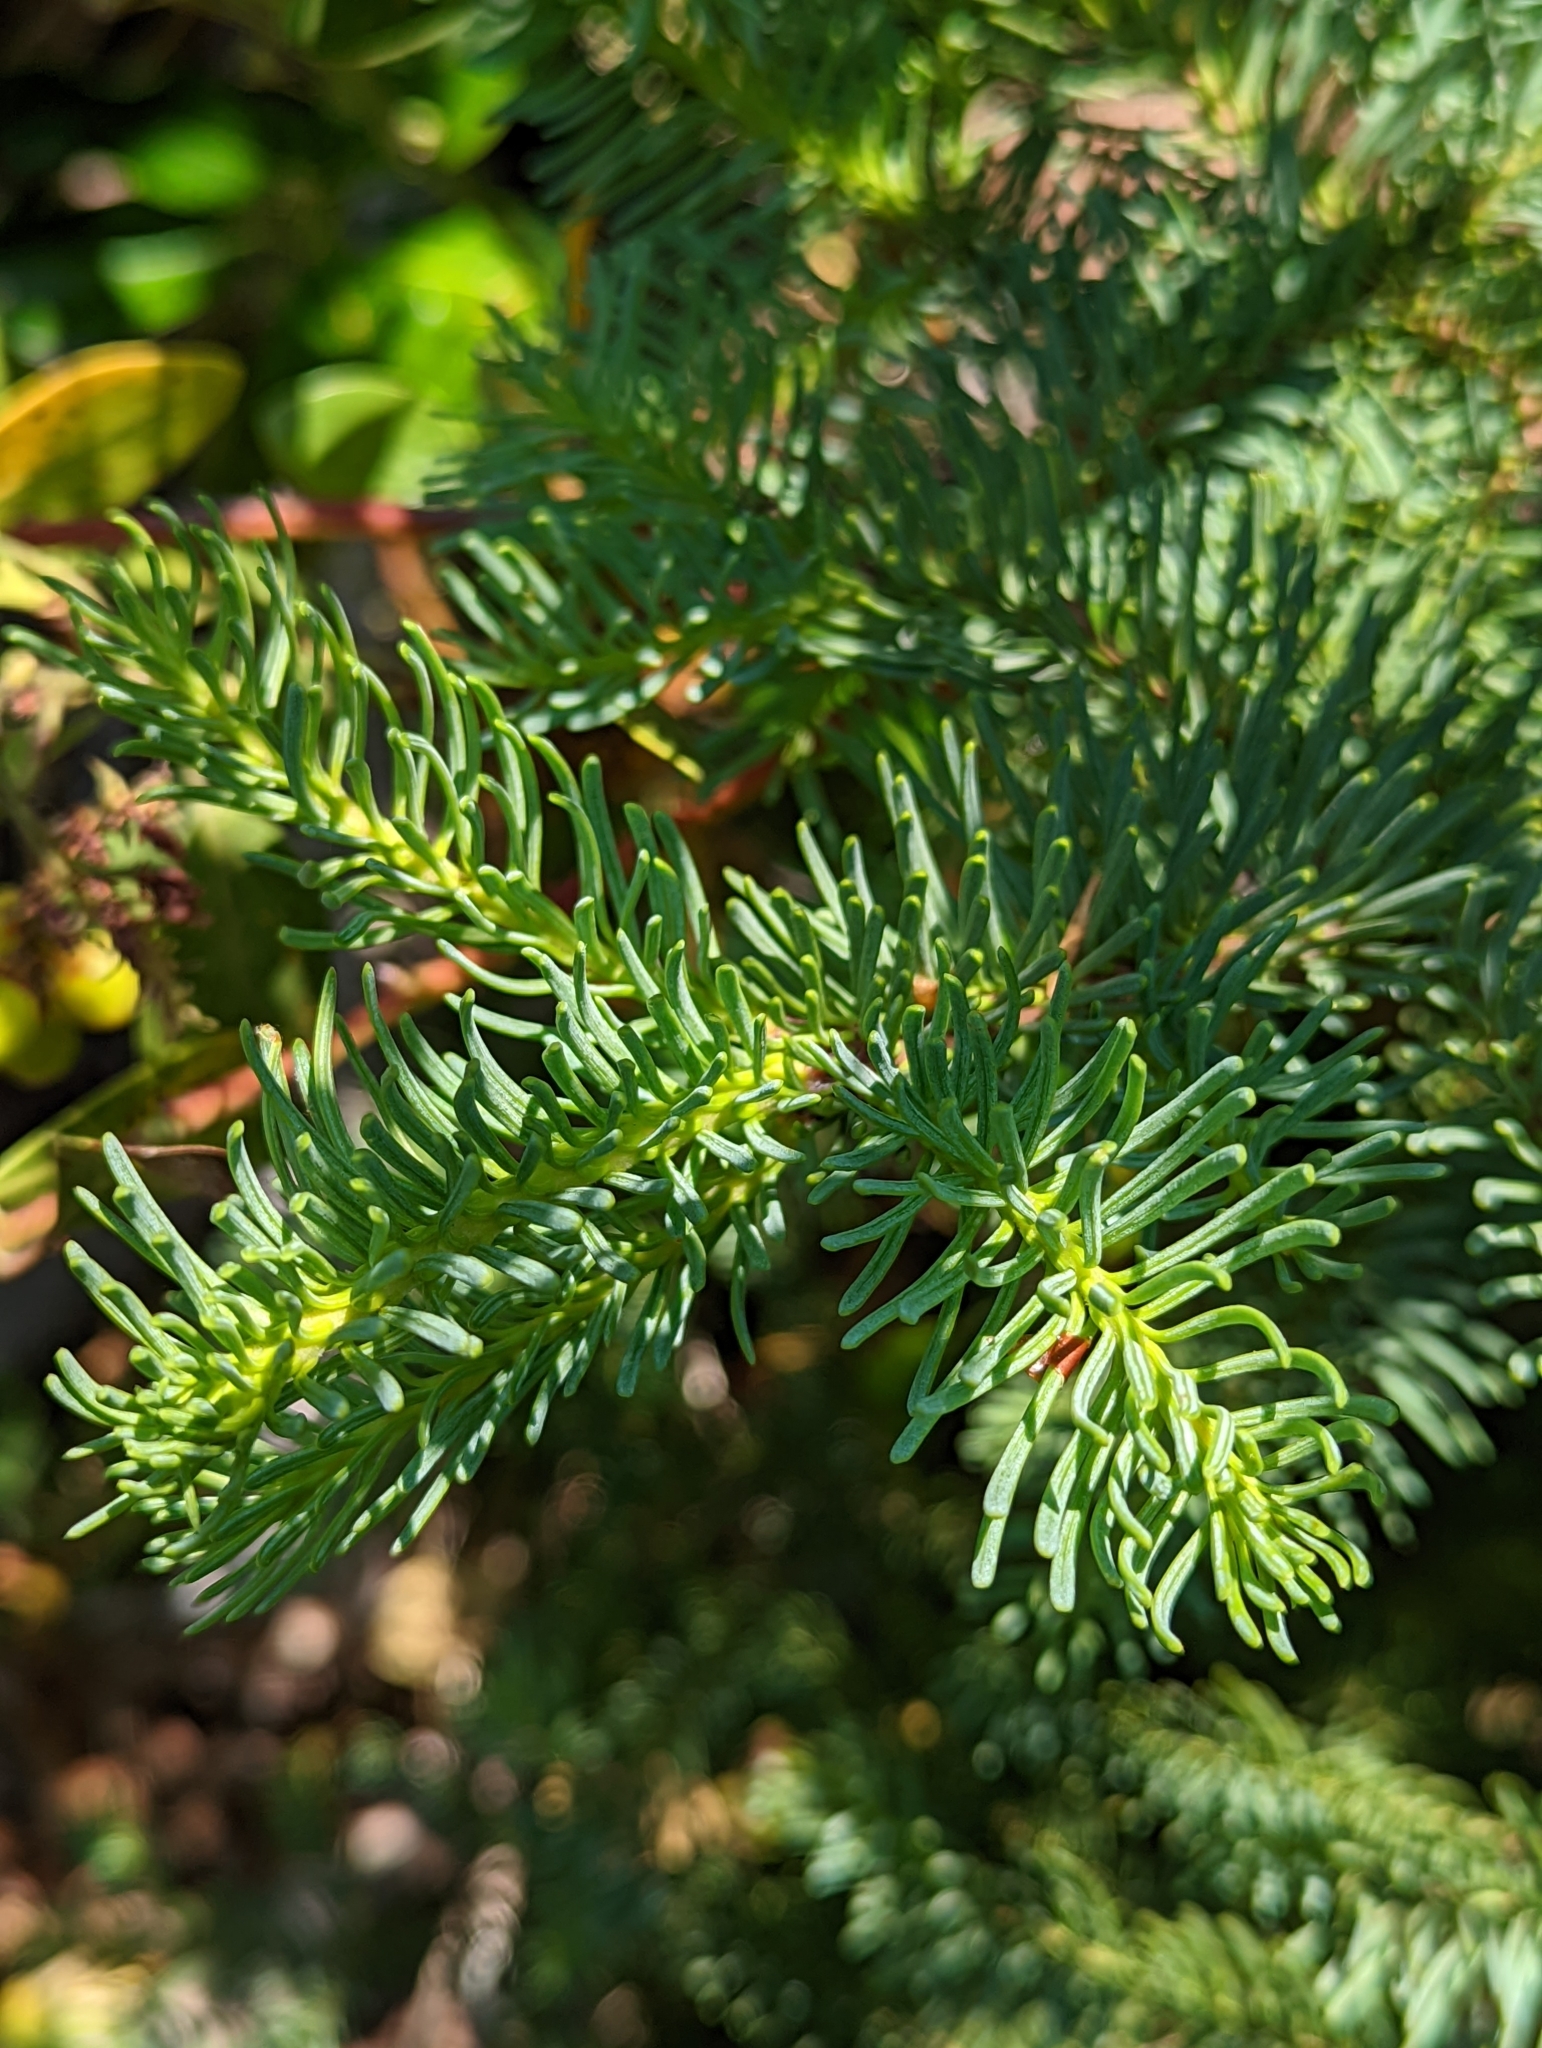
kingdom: Plantae
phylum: Tracheophyta
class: Pinopsida
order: Pinales
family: Pinaceae
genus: Abies
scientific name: Abies procera
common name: Noble fir
